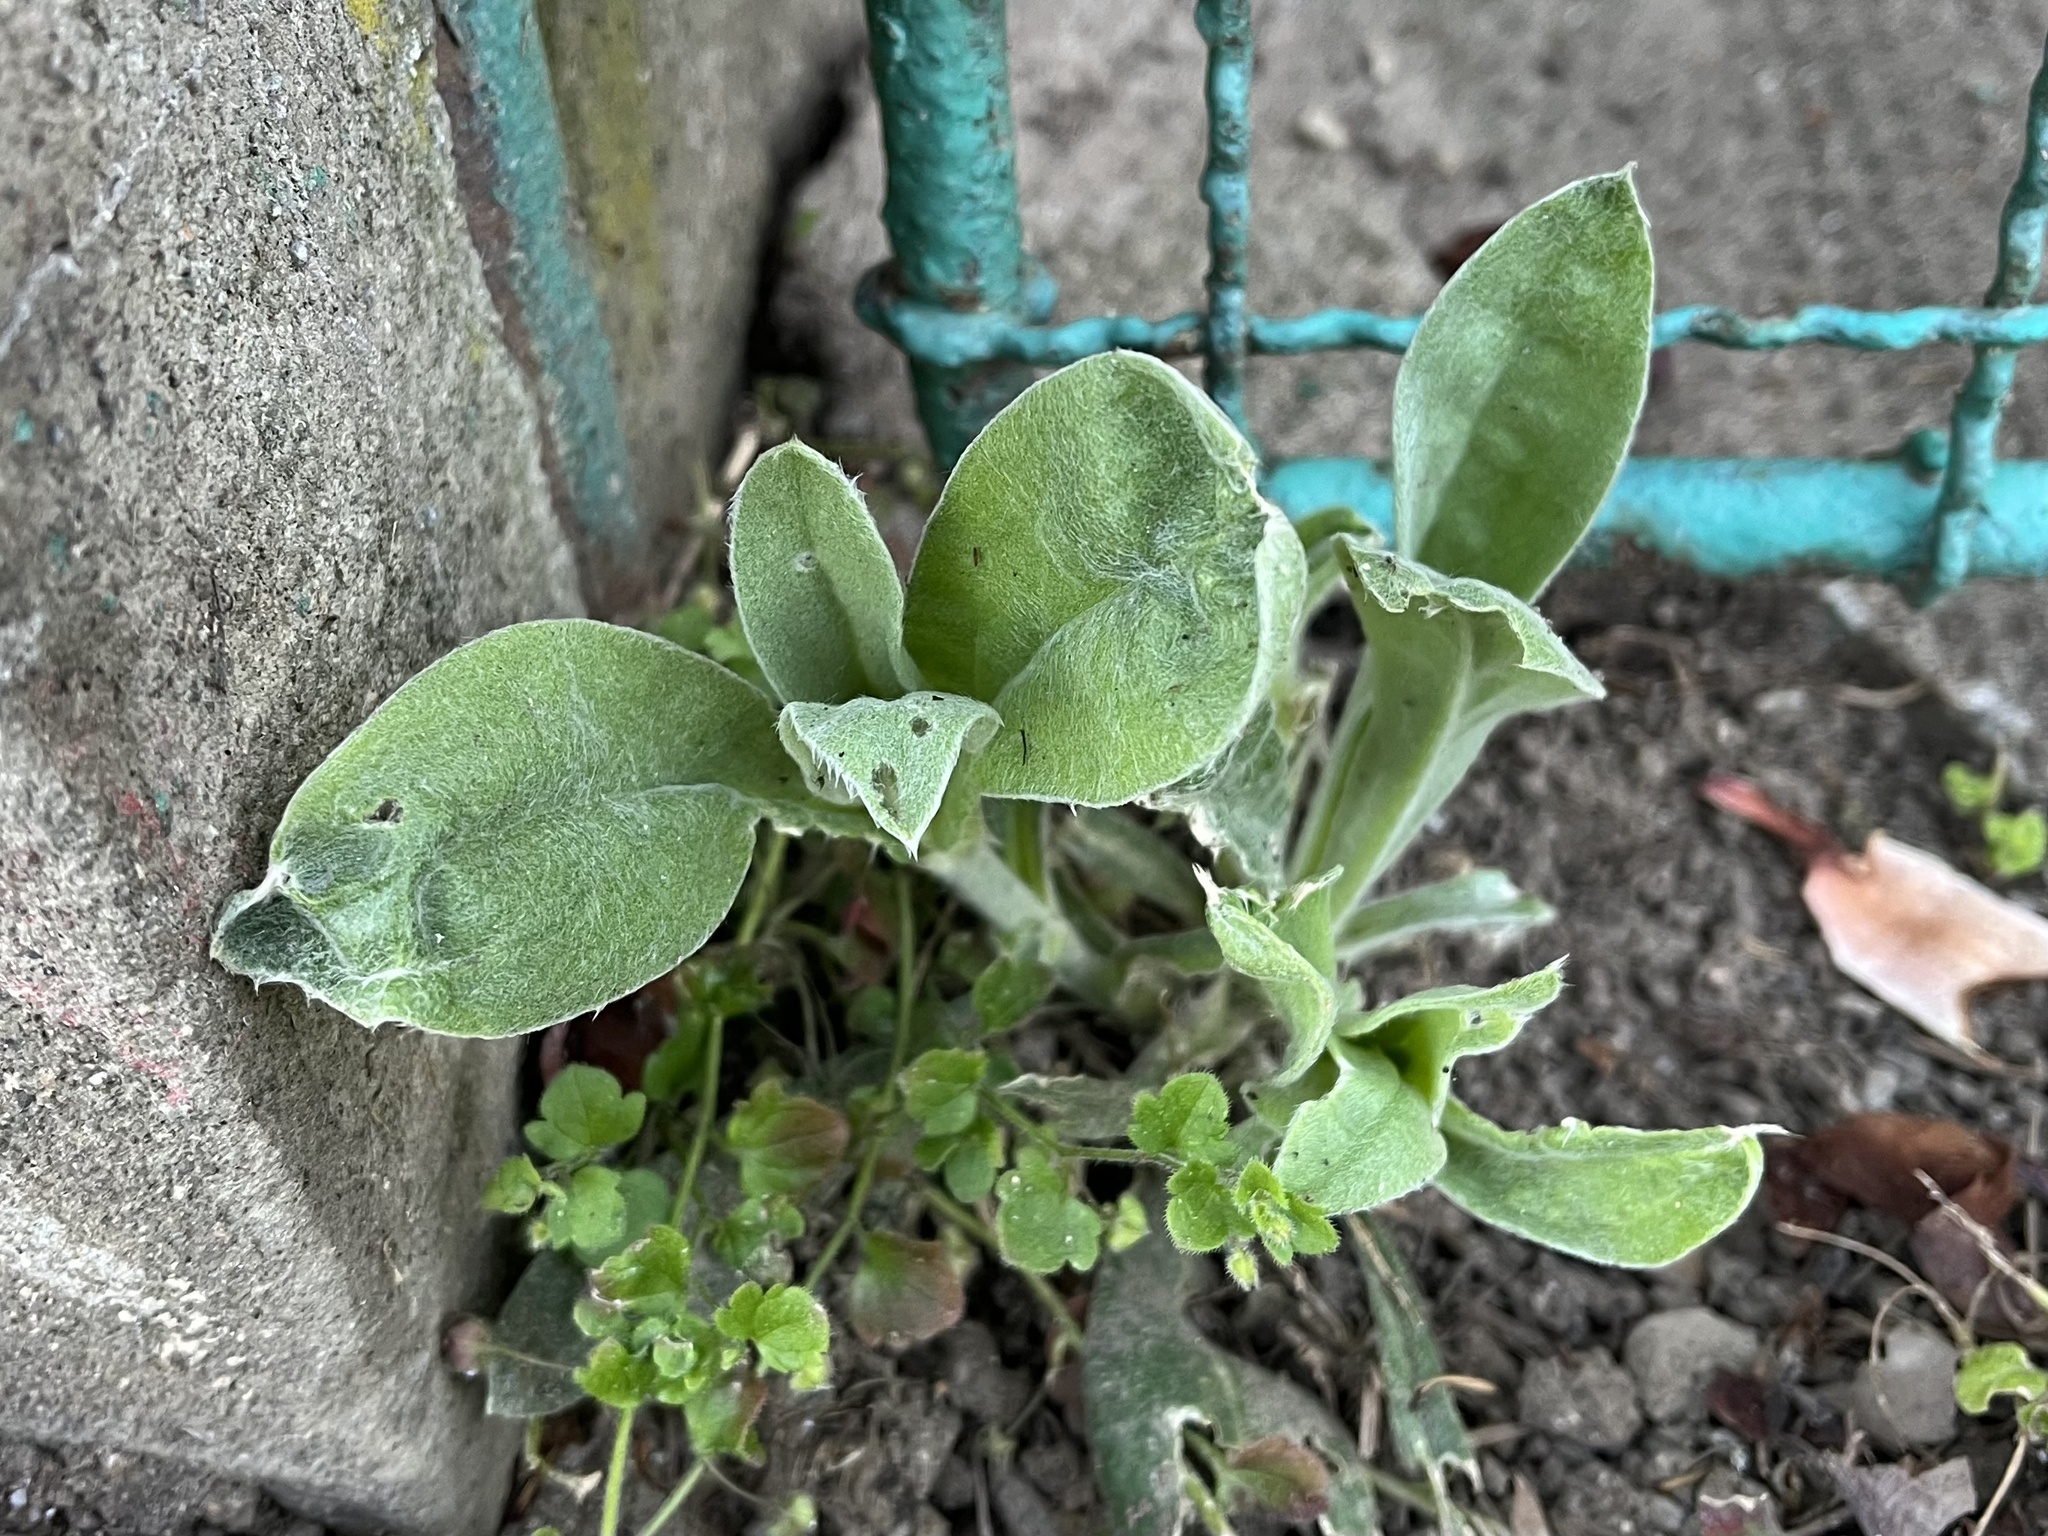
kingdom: Plantae
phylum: Tracheophyta
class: Magnoliopsida
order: Caryophyllales
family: Caryophyllaceae
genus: Silene
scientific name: Silene coronaria
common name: Rose campion
